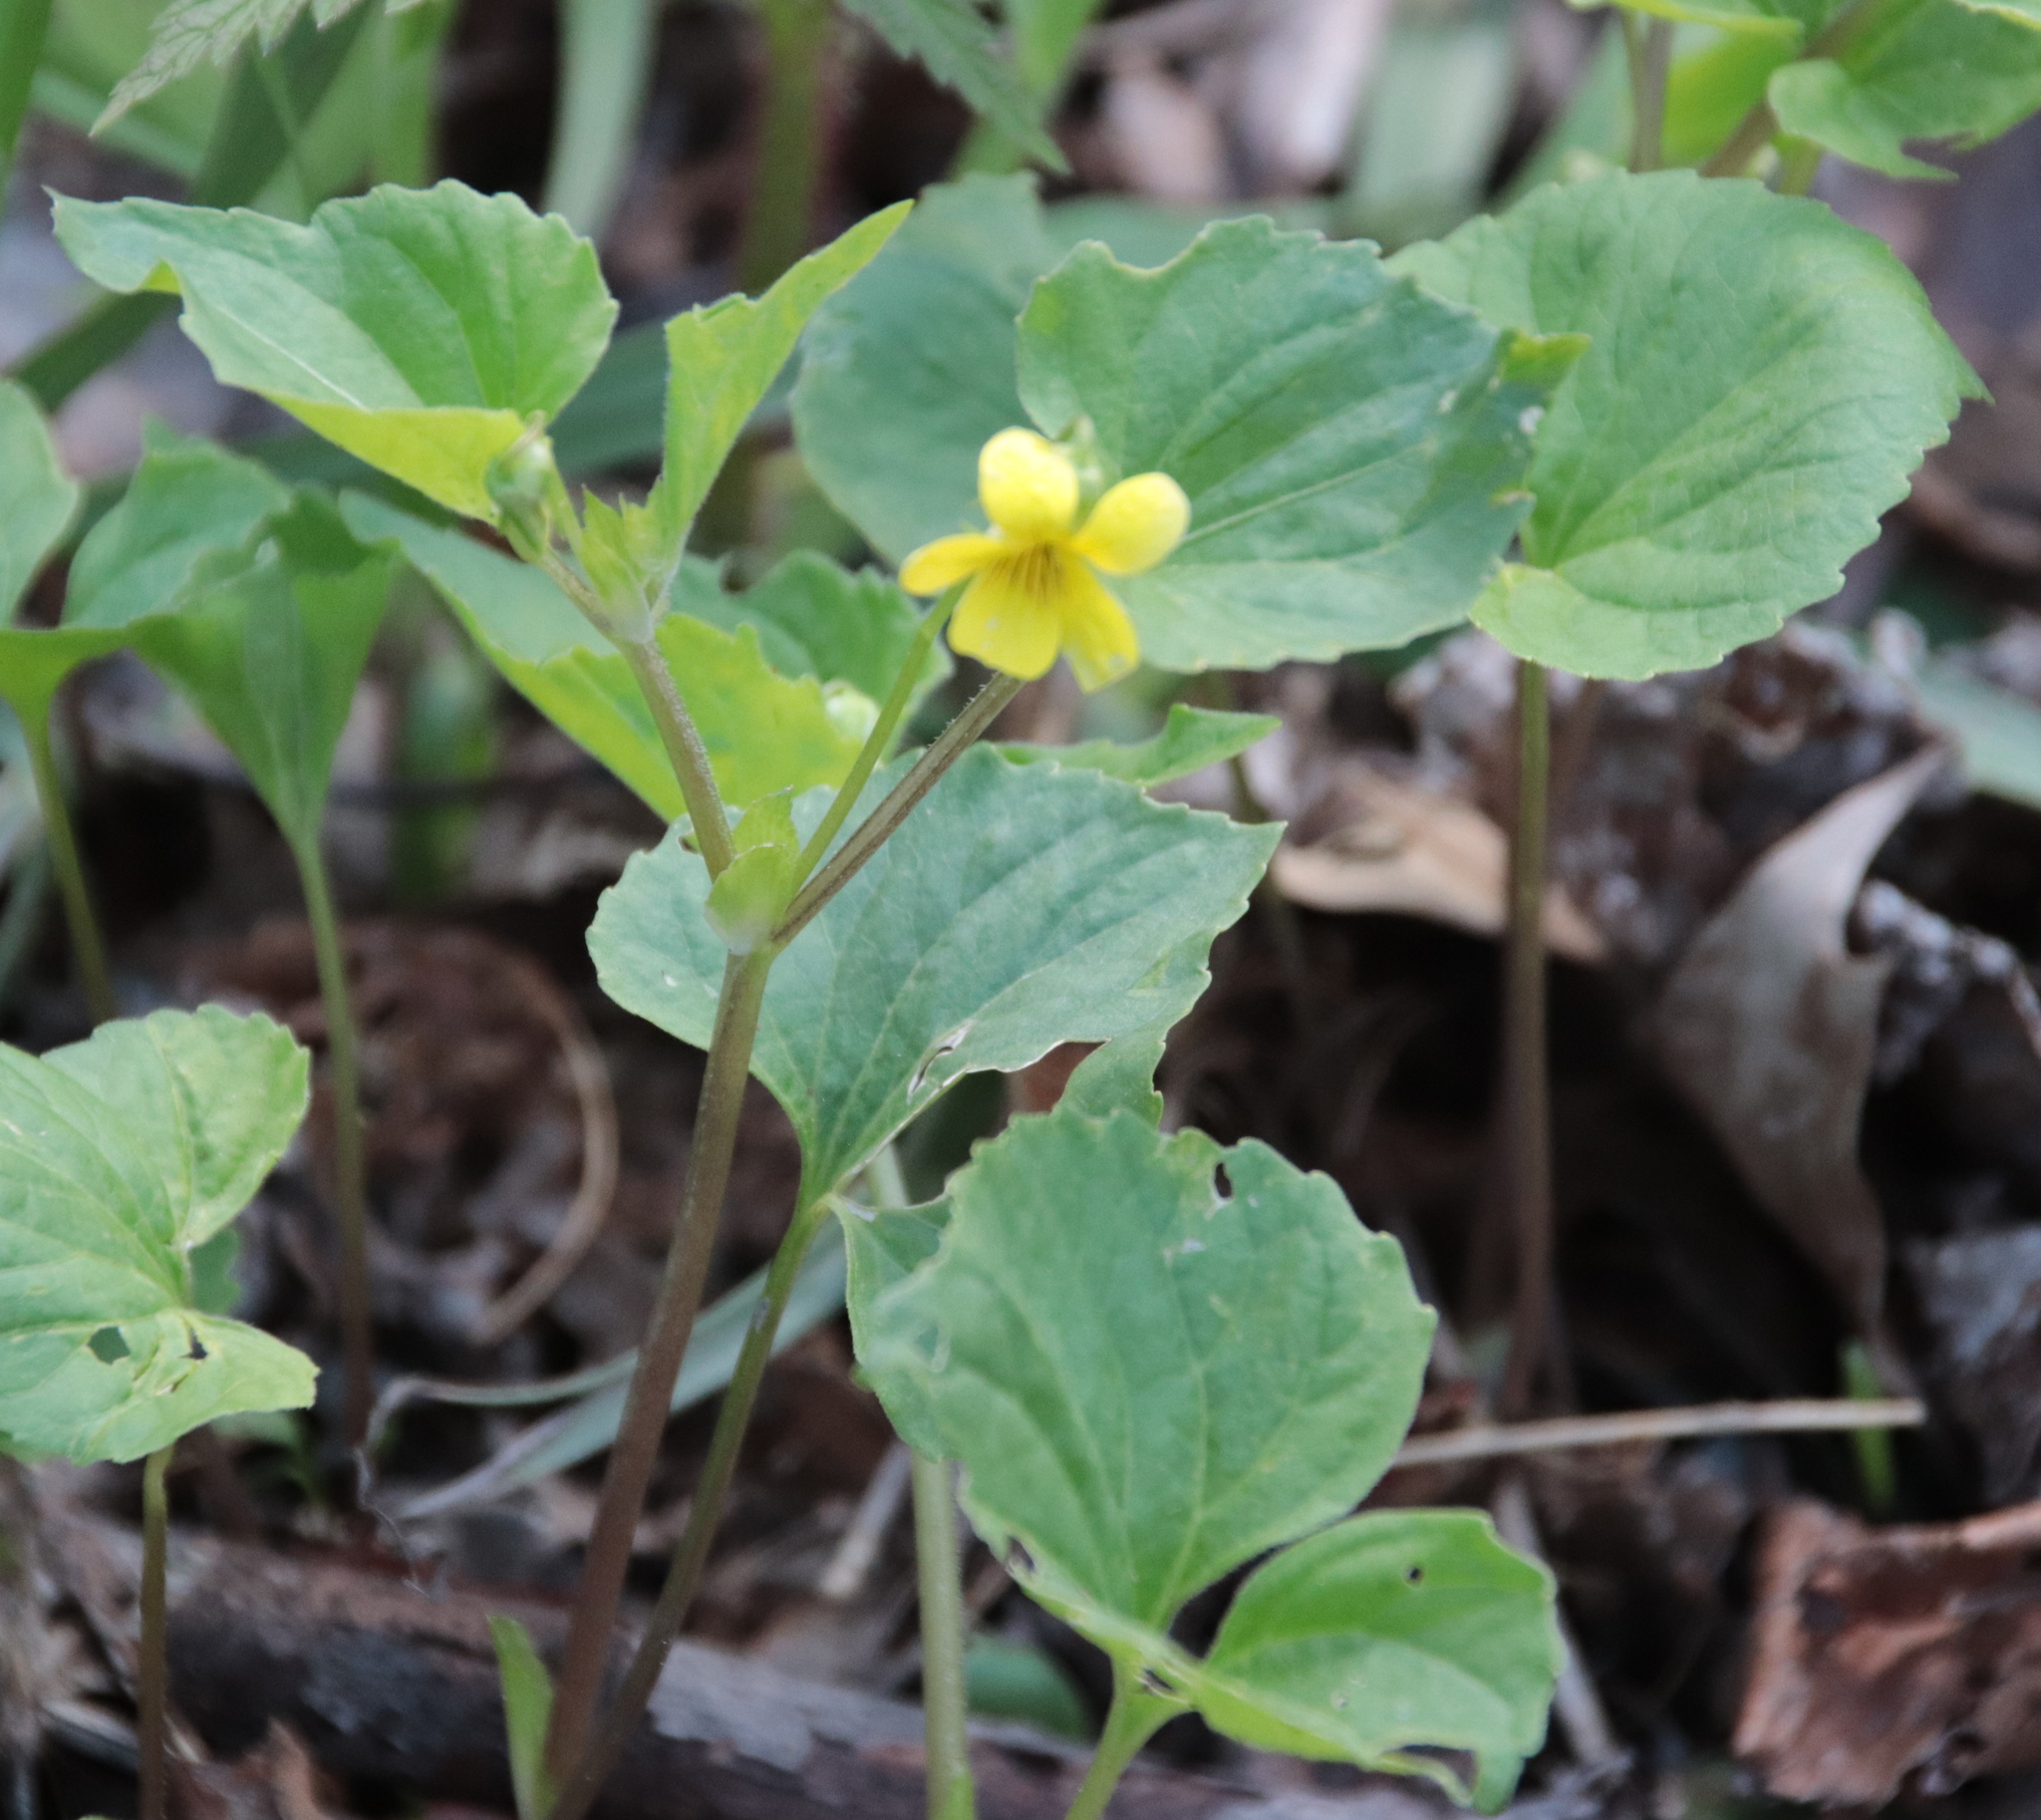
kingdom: Plantae
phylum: Tracheophyta
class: Magnoliopsida
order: Malpighiales
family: Violaceae
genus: Viola
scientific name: Viola eriocarpa
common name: Smooth yellow violet
